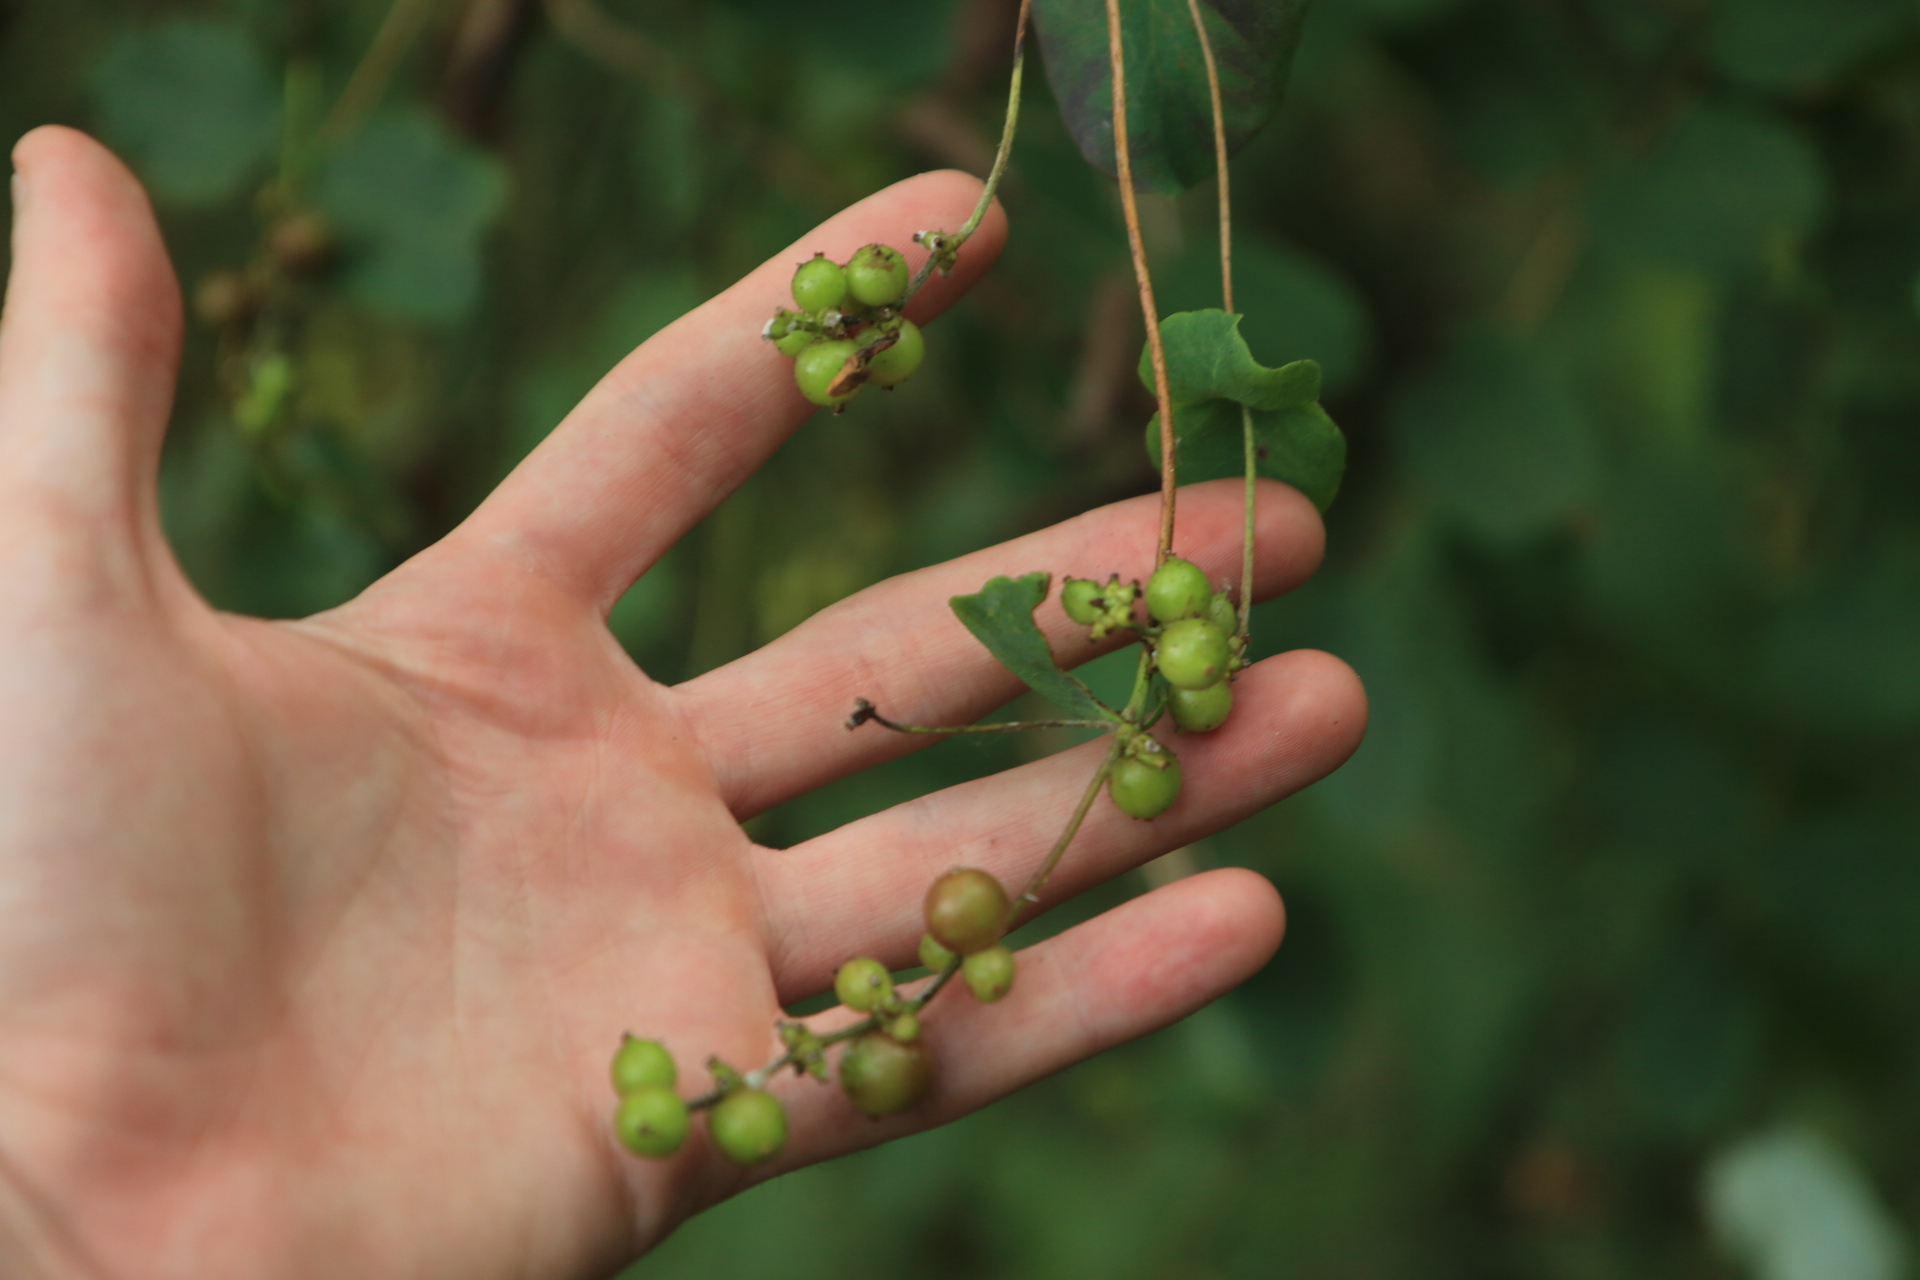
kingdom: Plantae
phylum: Tracheophyta
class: Magnoliopsida
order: Dipsacales
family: Caprifoliaceae
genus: Lonicera
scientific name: Lonicera hispidula
